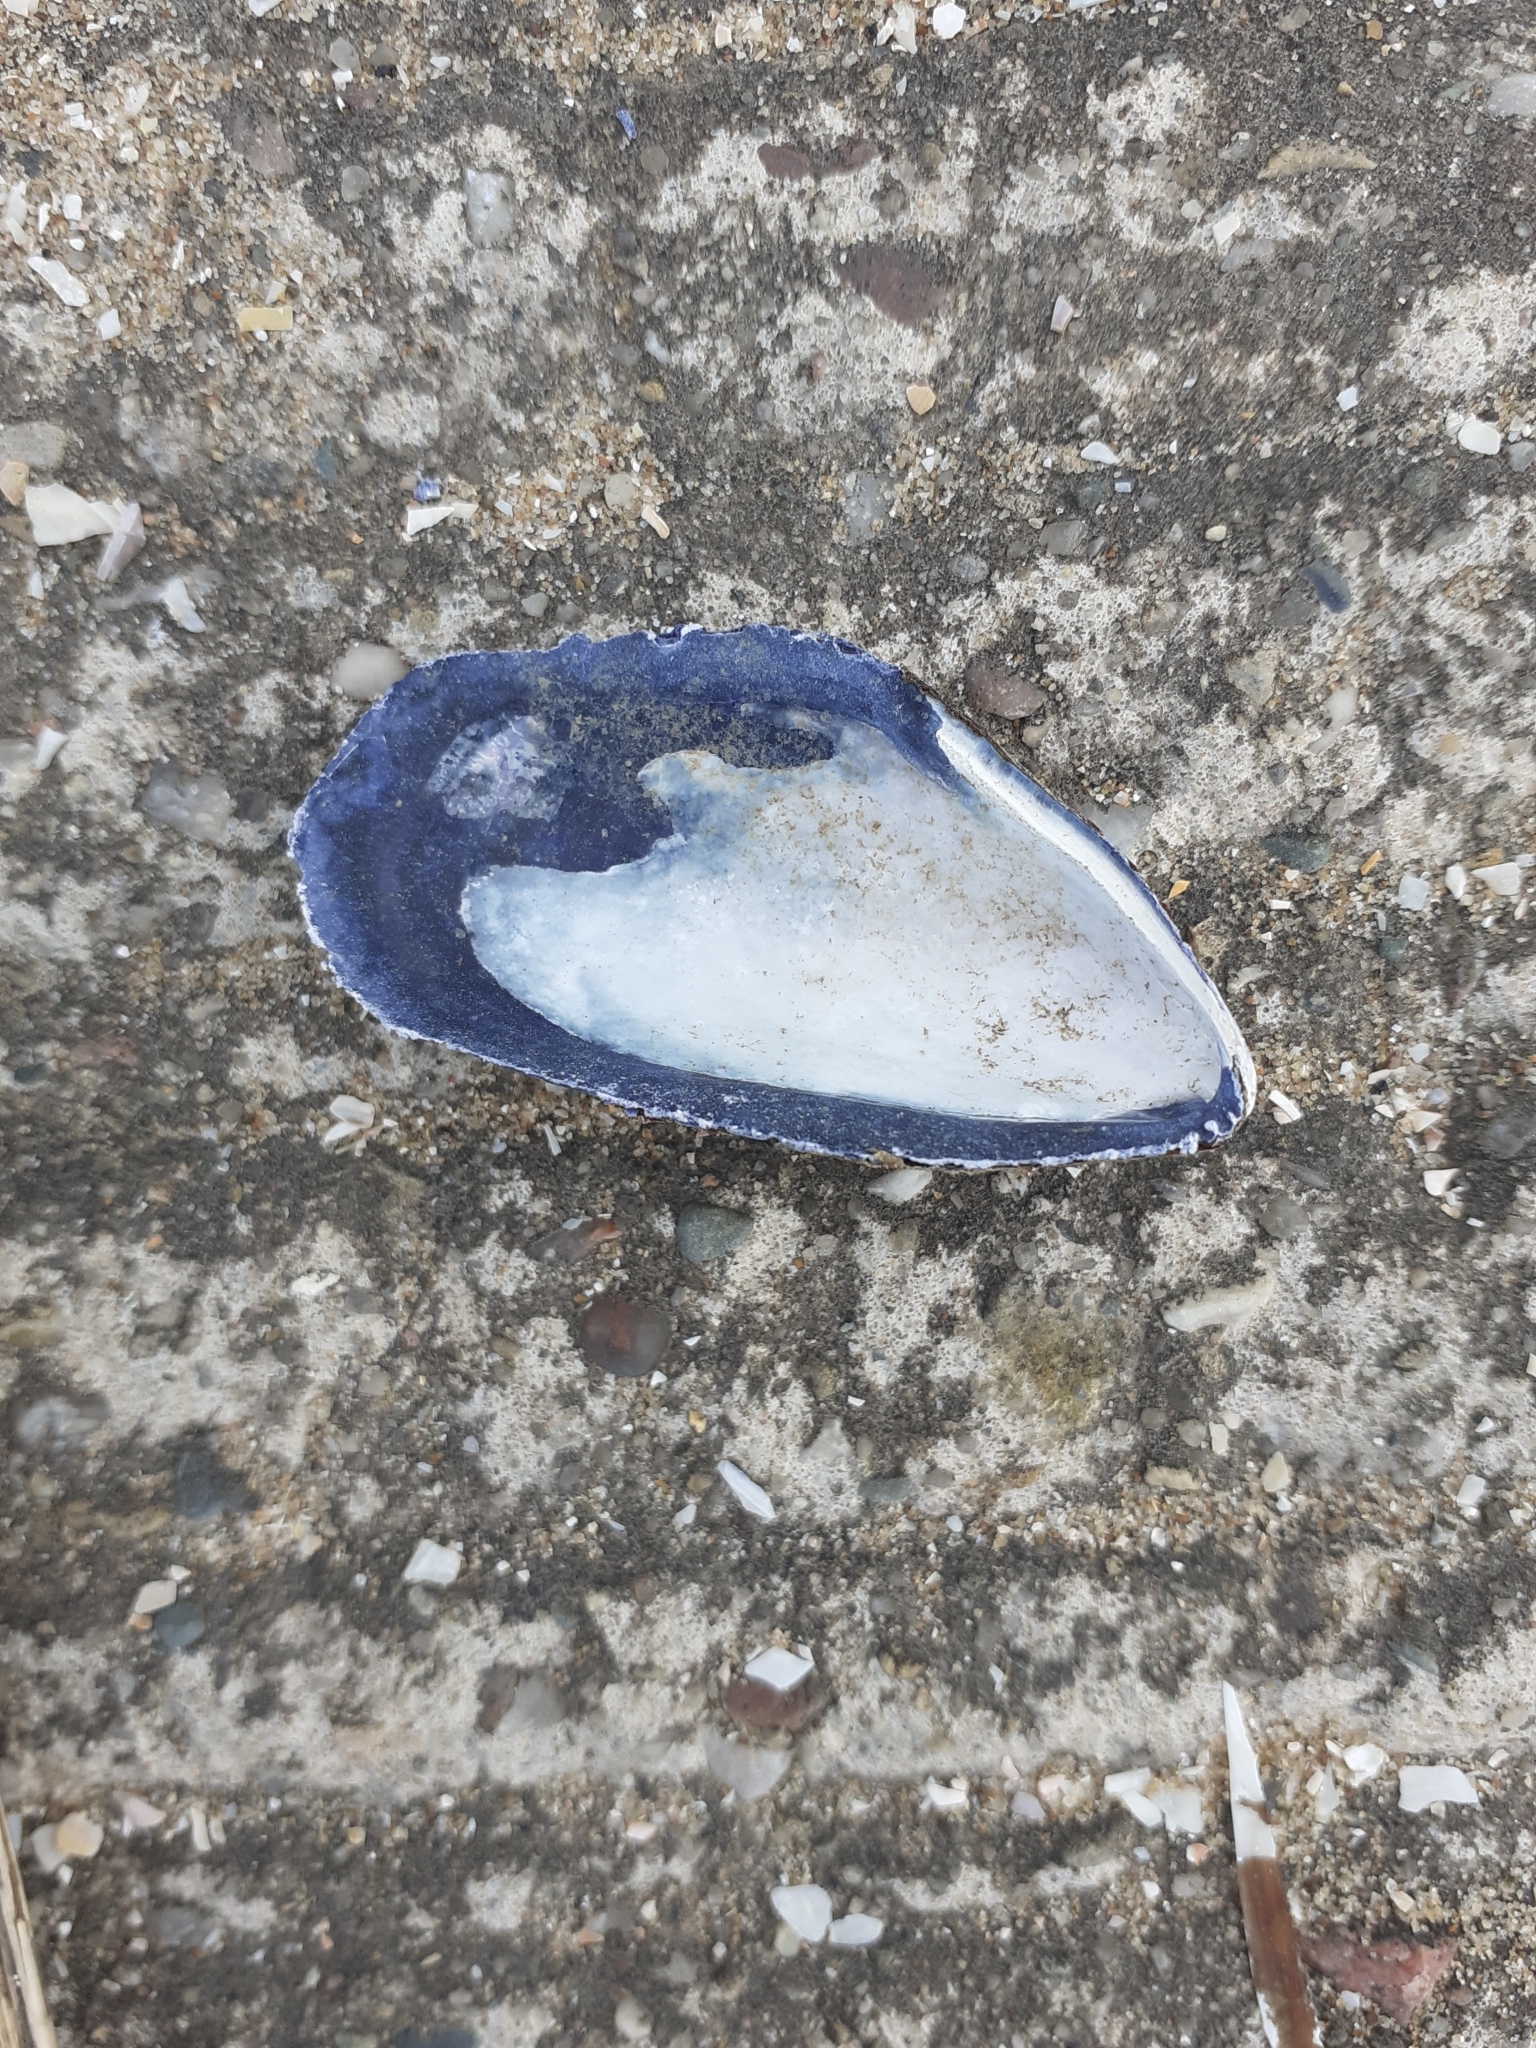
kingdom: Animalia
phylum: Mollusca
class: Bivalvia
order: Mytilida
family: Mytilidae
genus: Mytilus
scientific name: Mytilus edulis
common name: Blue mussel
